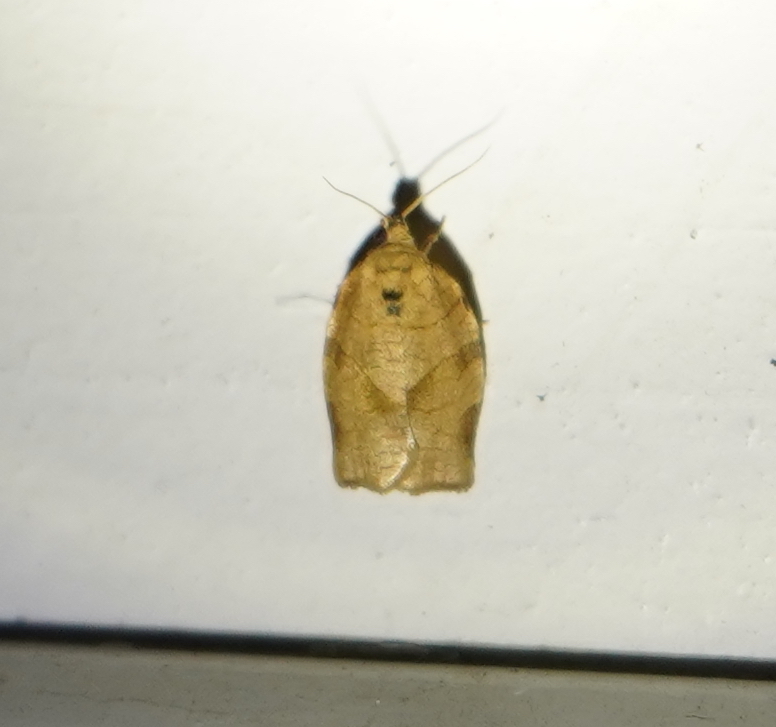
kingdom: Animalia
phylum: Arthropoda
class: Insecta
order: Lepidoptera
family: Tortricidae
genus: Choristoneura
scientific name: Choristoneura rosaceana
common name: Oblique-banded leafroller moth
